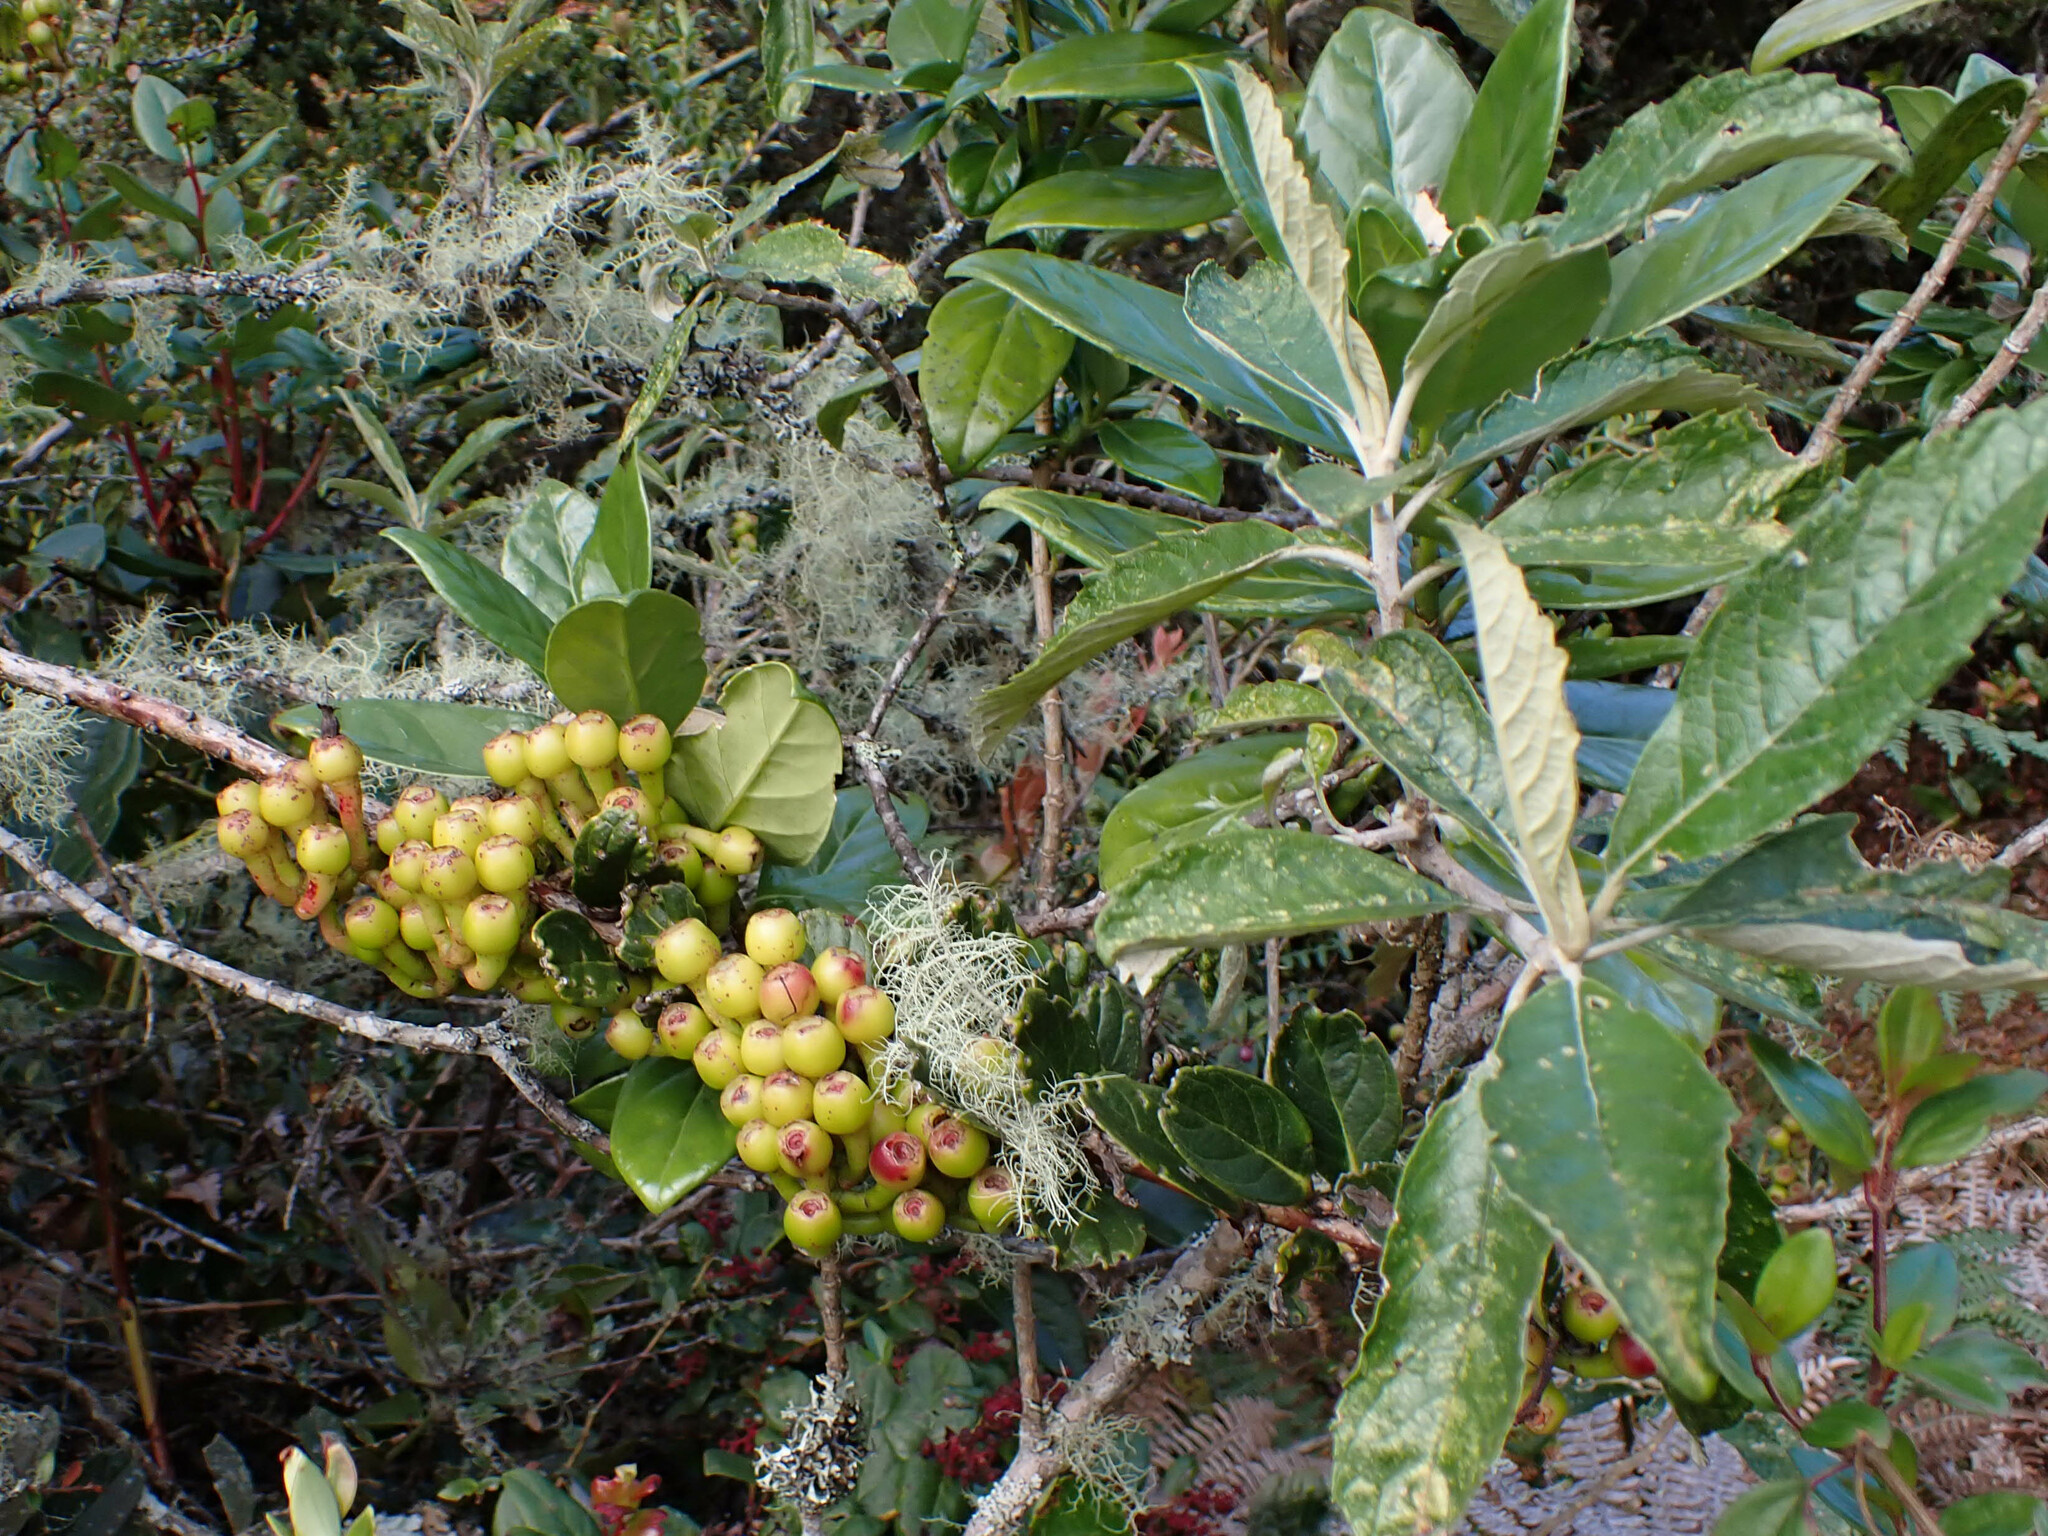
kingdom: Plantae
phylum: Tracheophyta
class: Magnoliopsida
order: Ericales
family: Ericaceae
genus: Macleania
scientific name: Macleania rupestris
